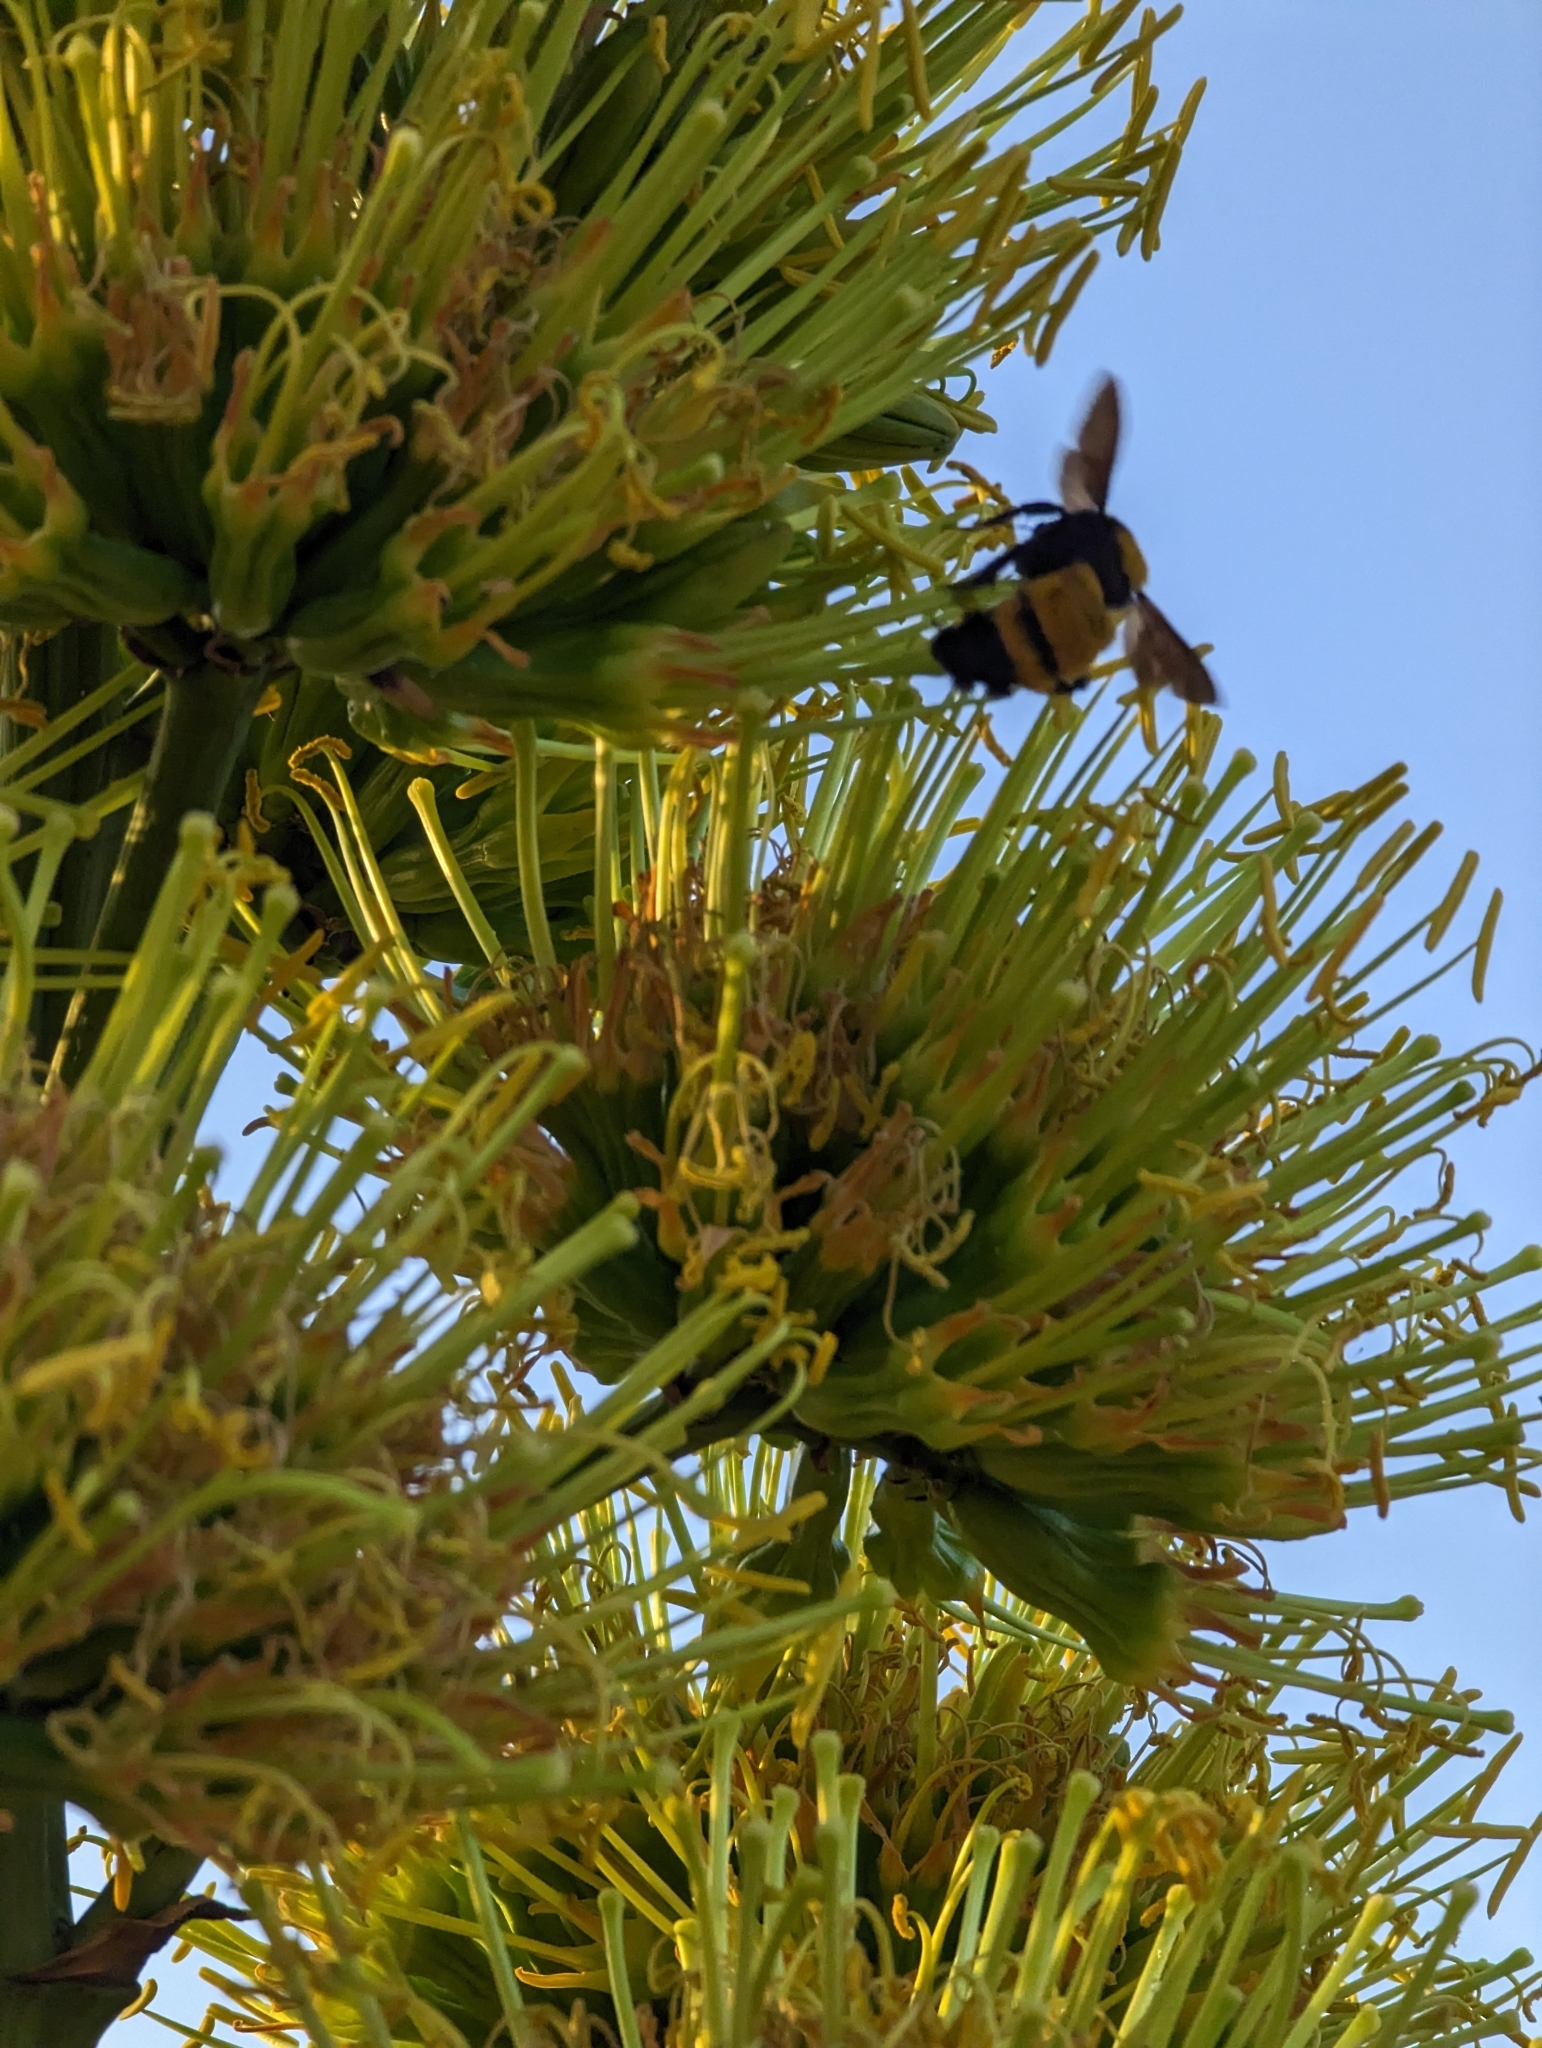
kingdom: Animalia
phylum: Arthropoda
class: Insecta
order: Hymenoptera
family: Apidae
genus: Bombus
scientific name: Bombus sonorus
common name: Sonoran bumble bee
